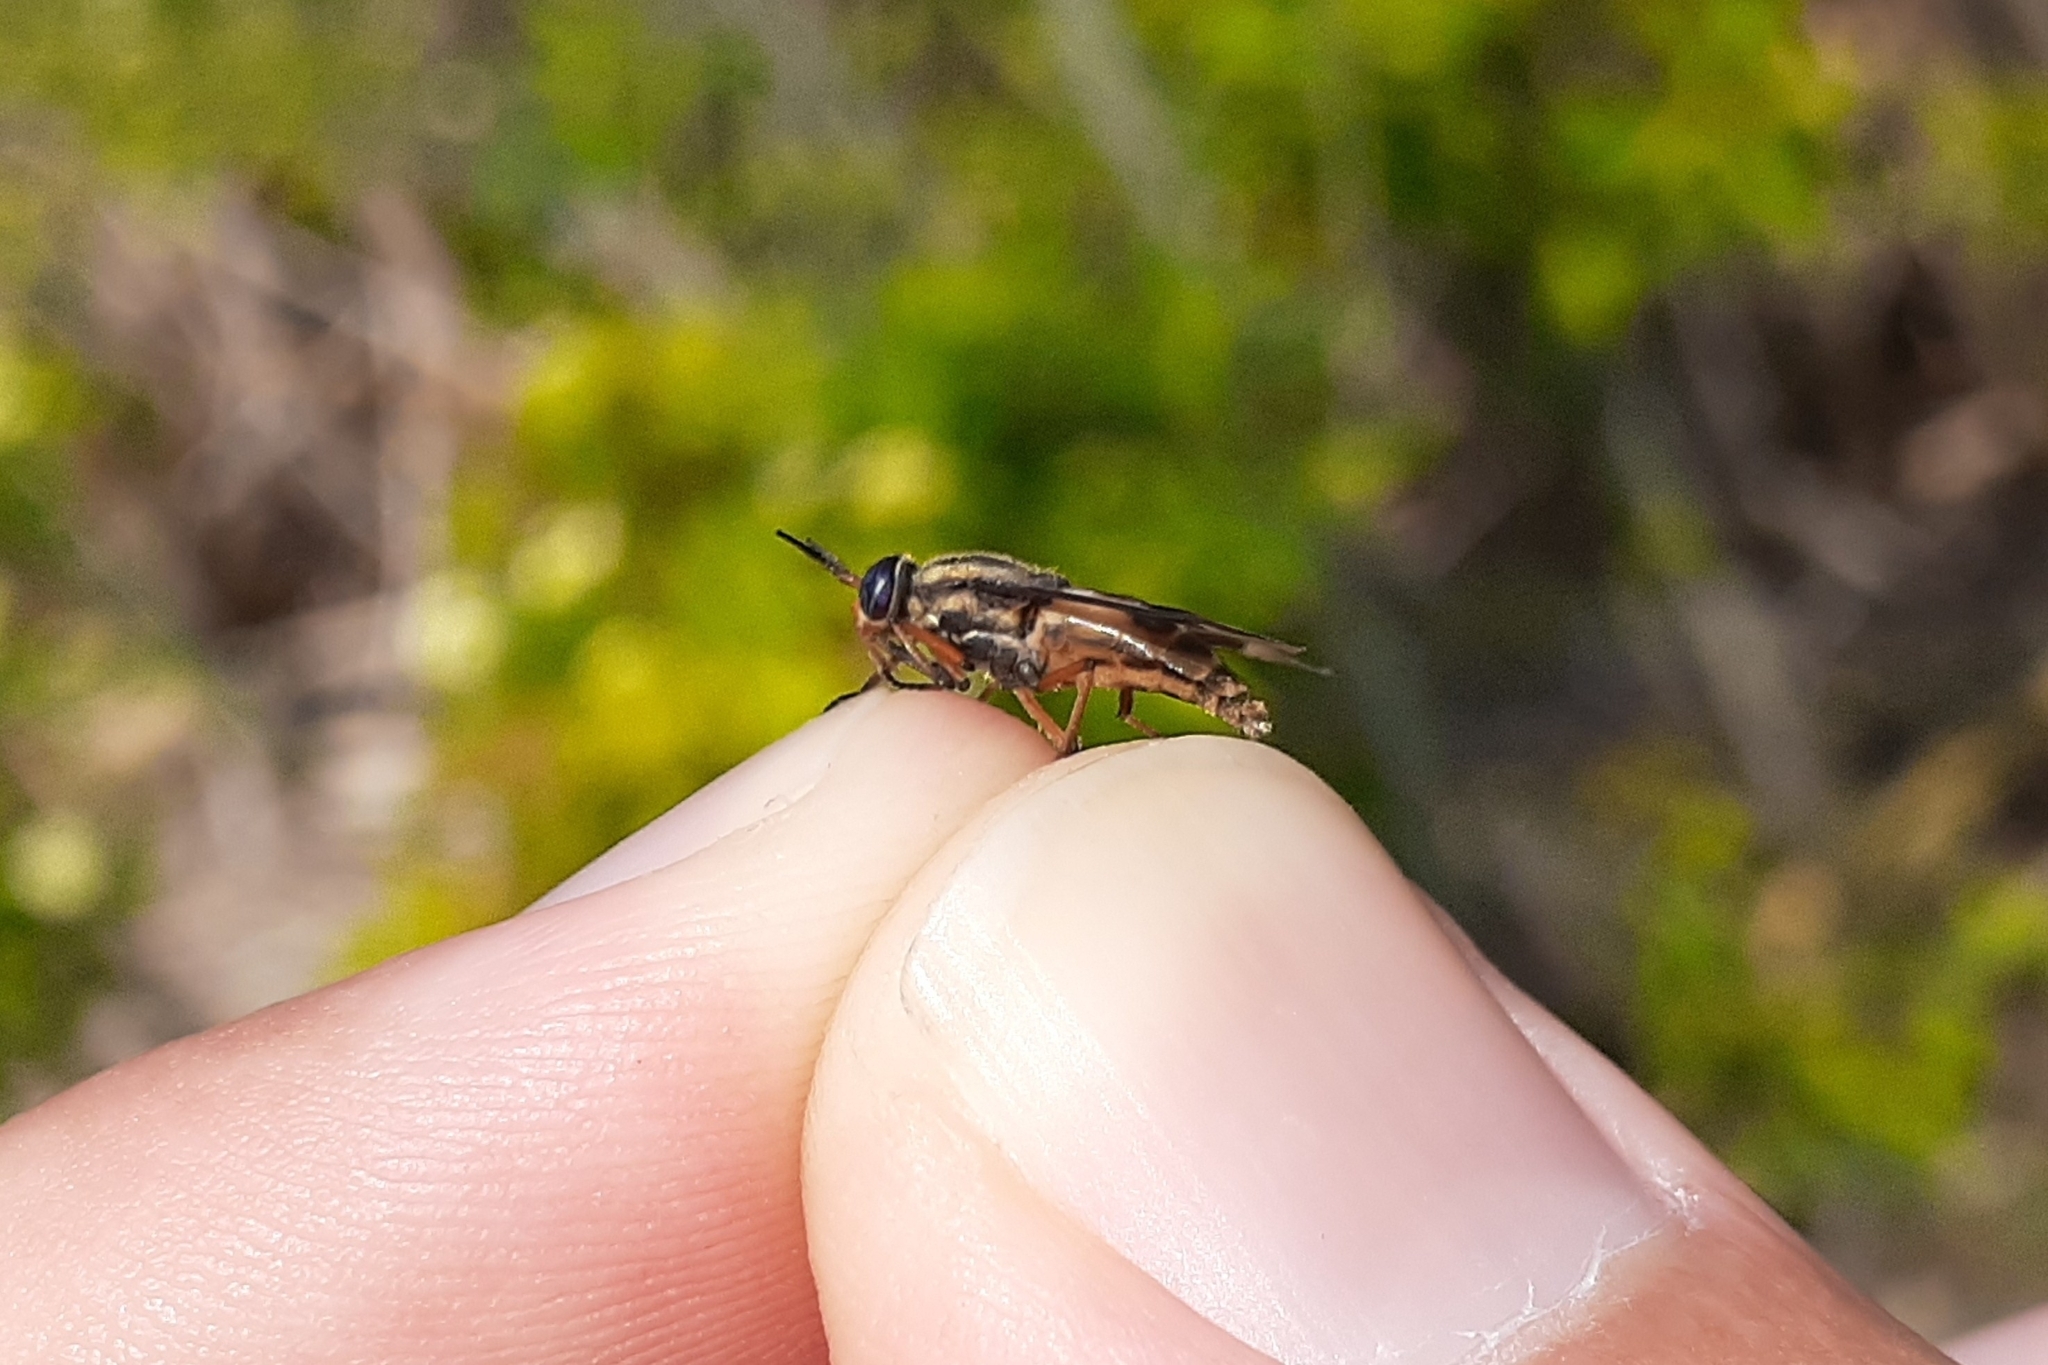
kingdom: Animalia
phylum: Arthropoda
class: Insecta
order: Diptera
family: Tabanidae
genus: Chrysops
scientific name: Chrysops sackeni
